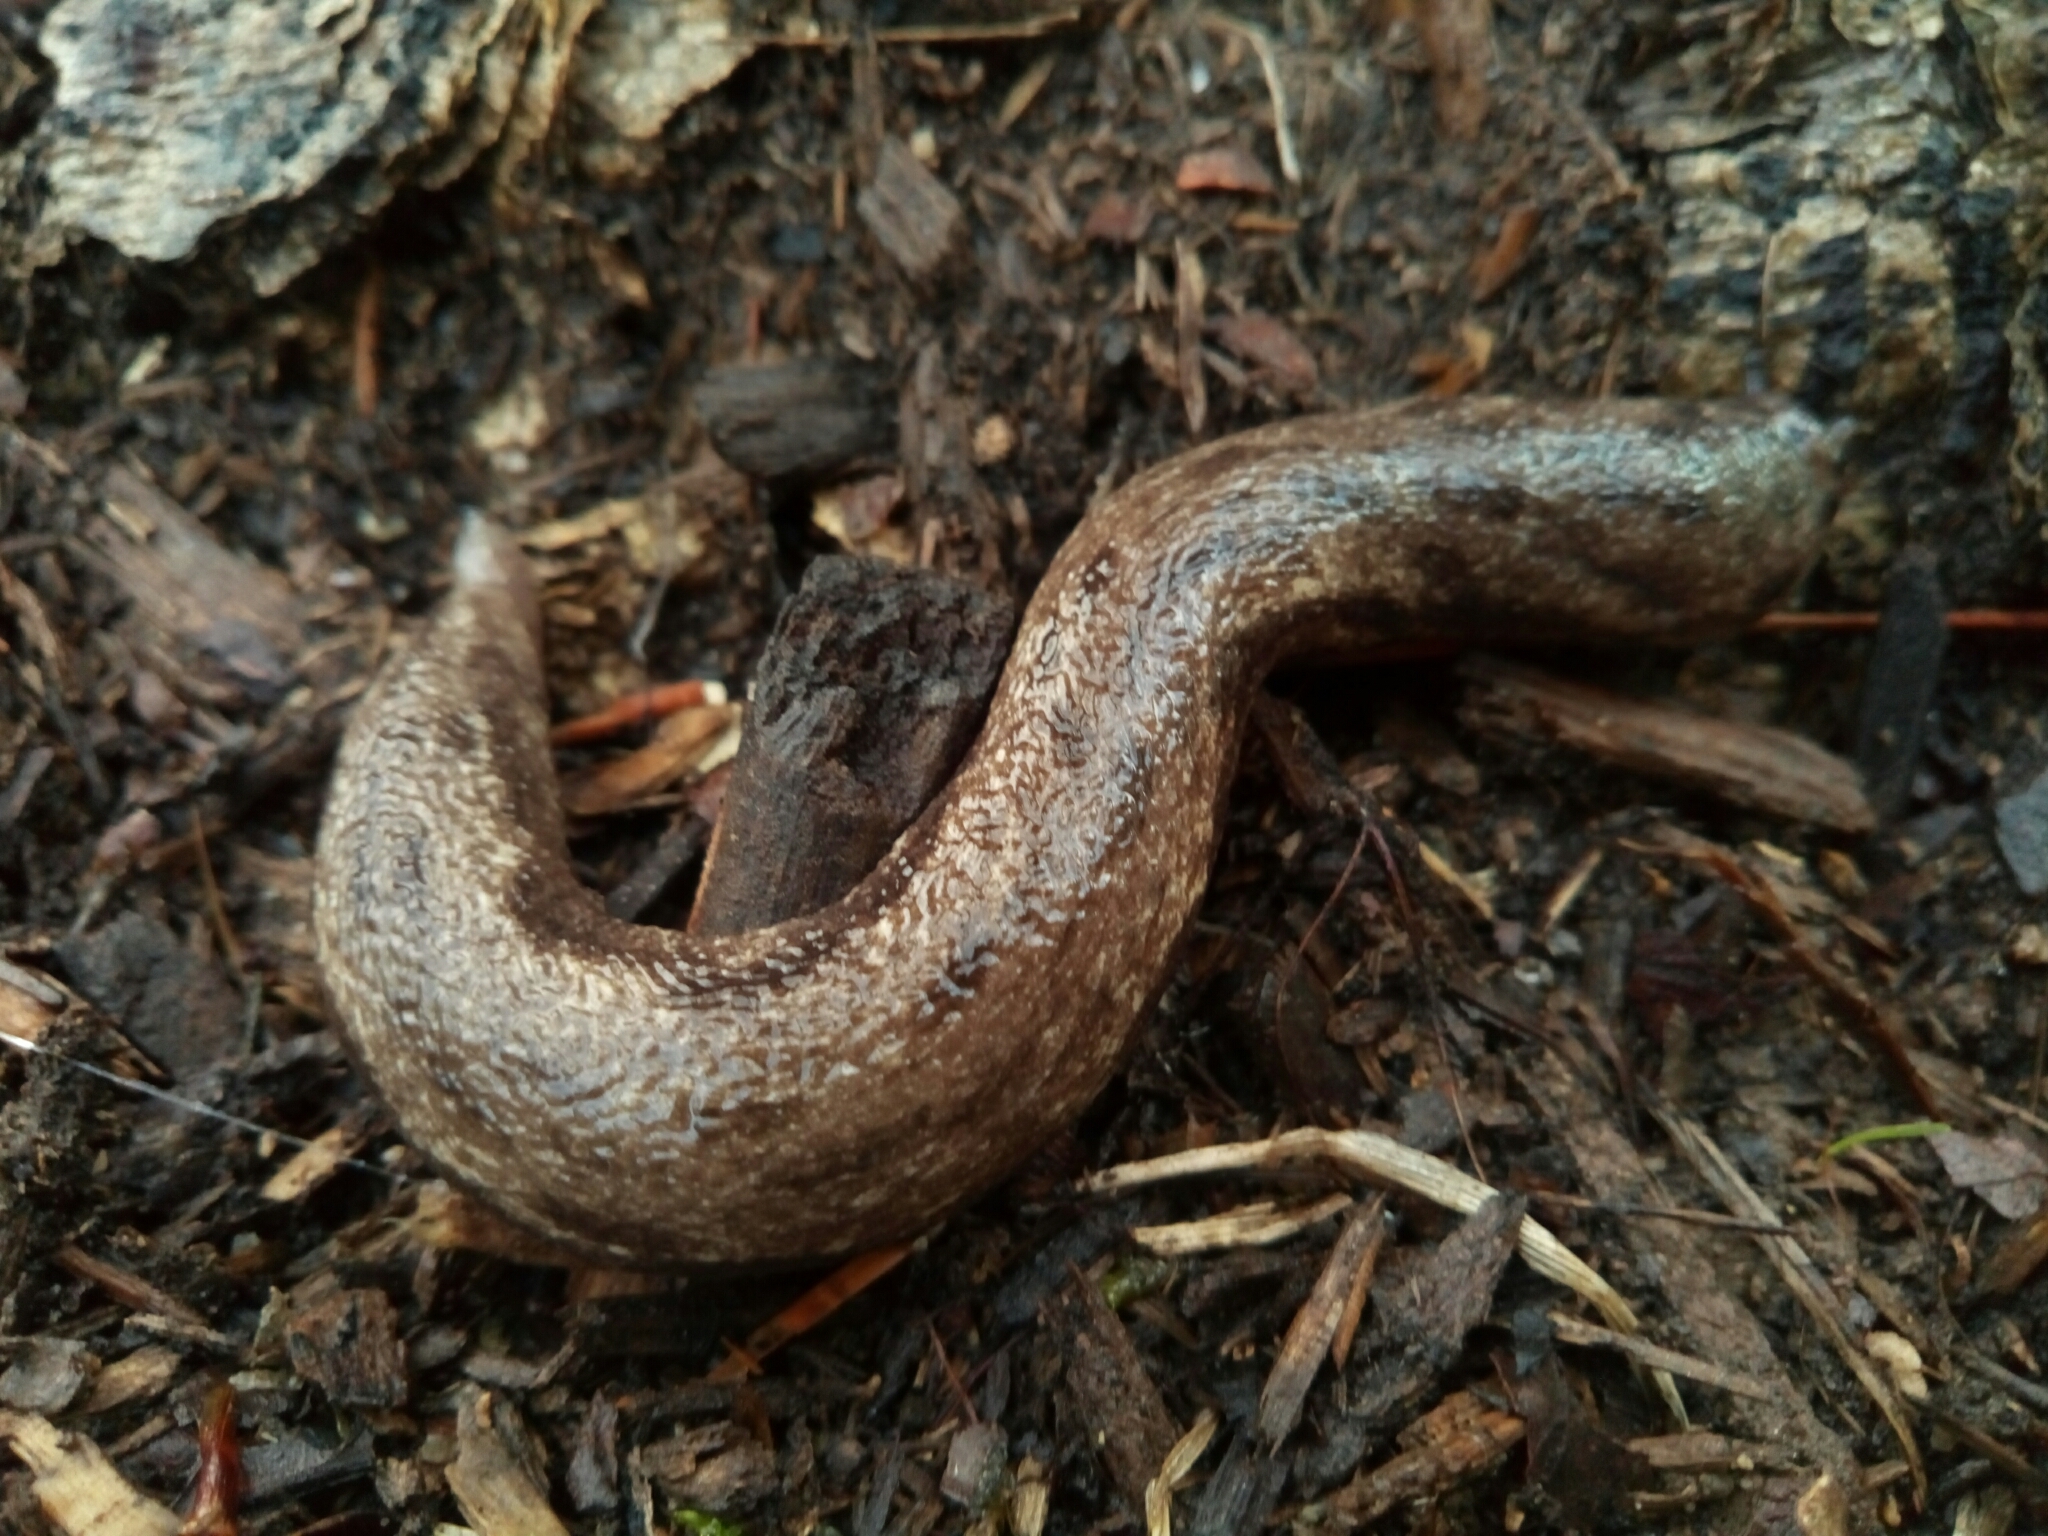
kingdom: Animalia
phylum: Mollusca
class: Gastropoda
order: Stylommatophora
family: Philomycidae
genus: Megapallifera
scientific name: Megapallifera mutabilis
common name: Changeable mantleslug
